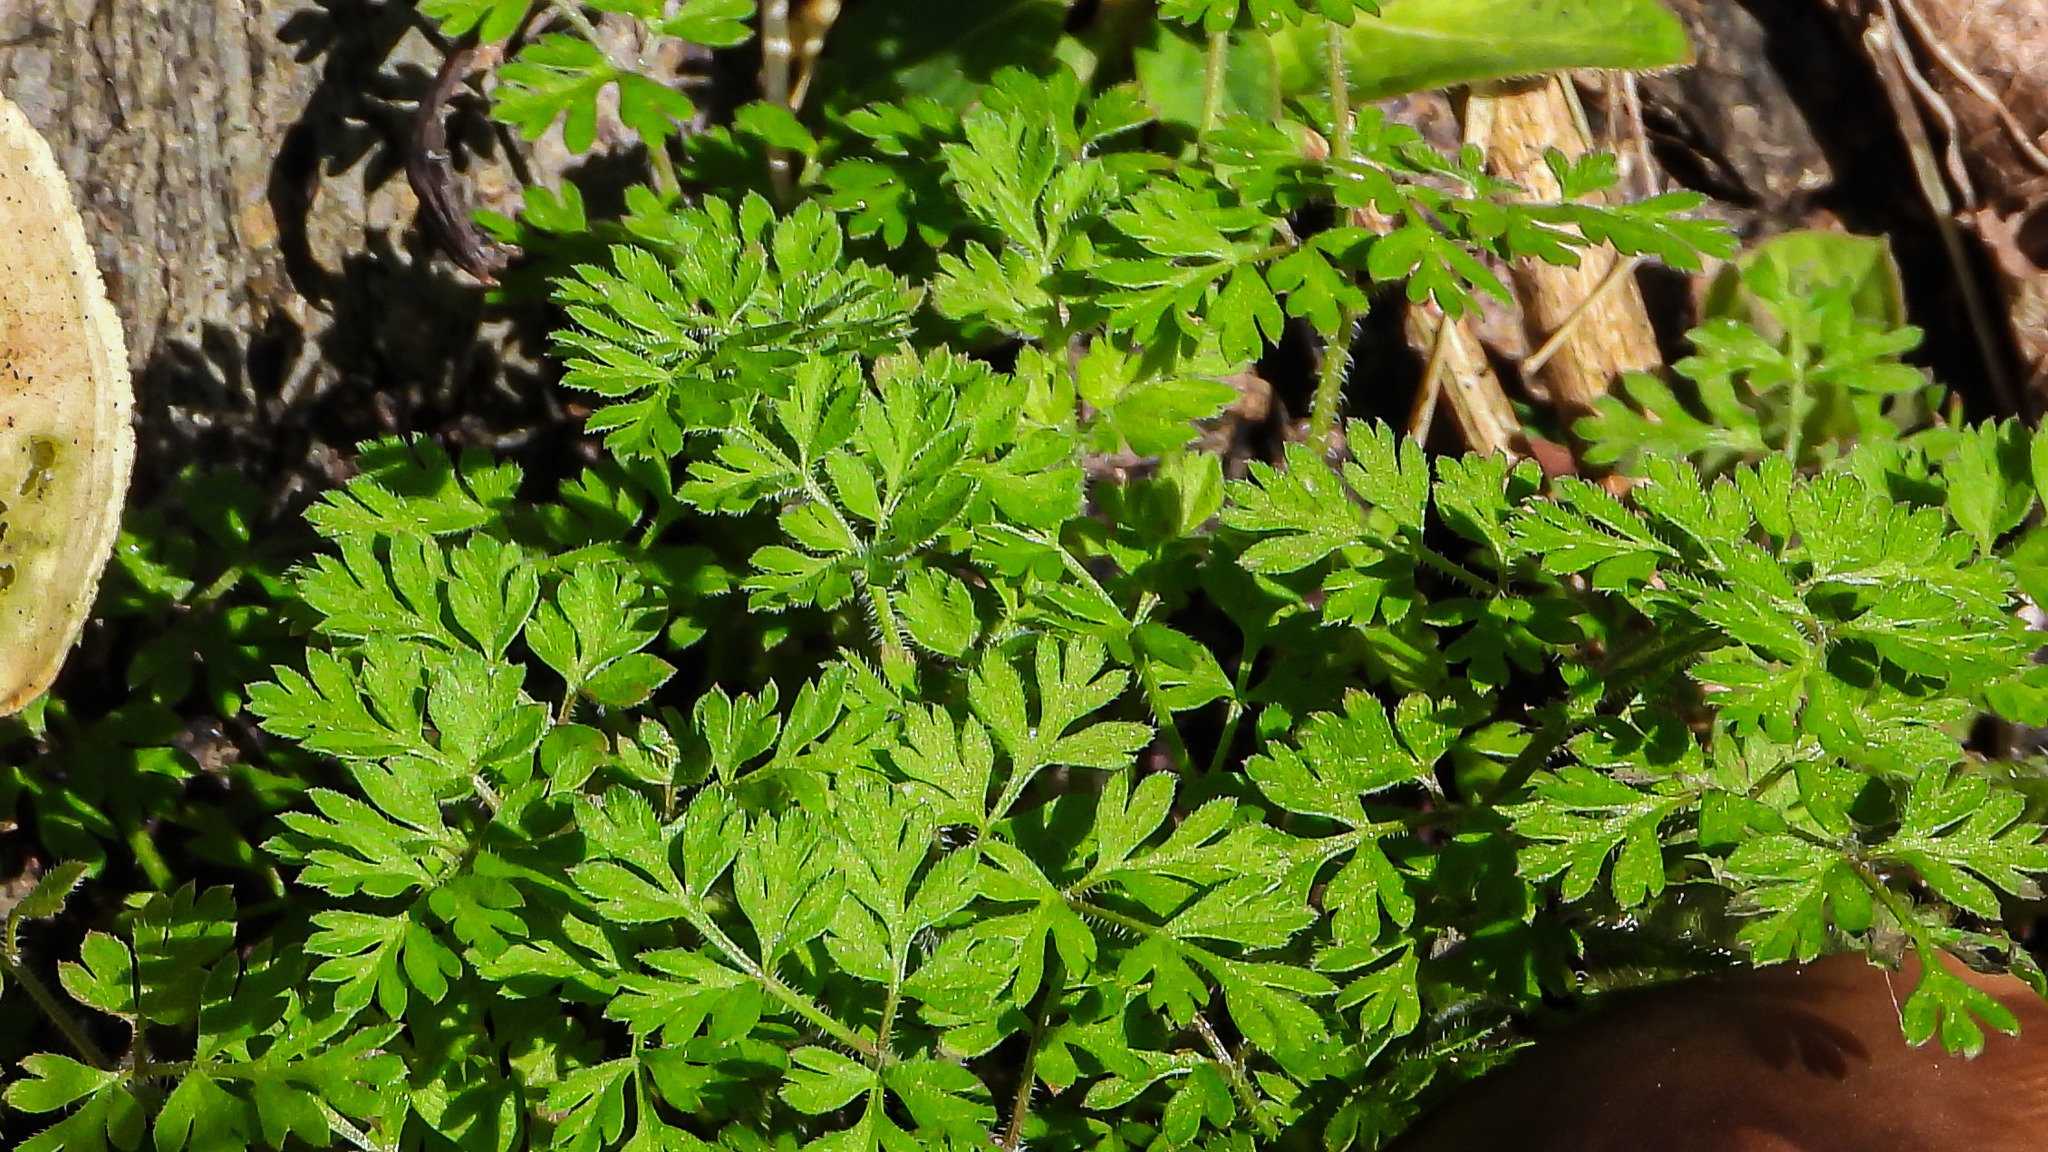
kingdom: Plantae
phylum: Tracheophyta
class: Magnoliopsida
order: Apiales
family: Apiaceae
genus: Chaerophyllum
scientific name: Chaerophyllum tainturieri
